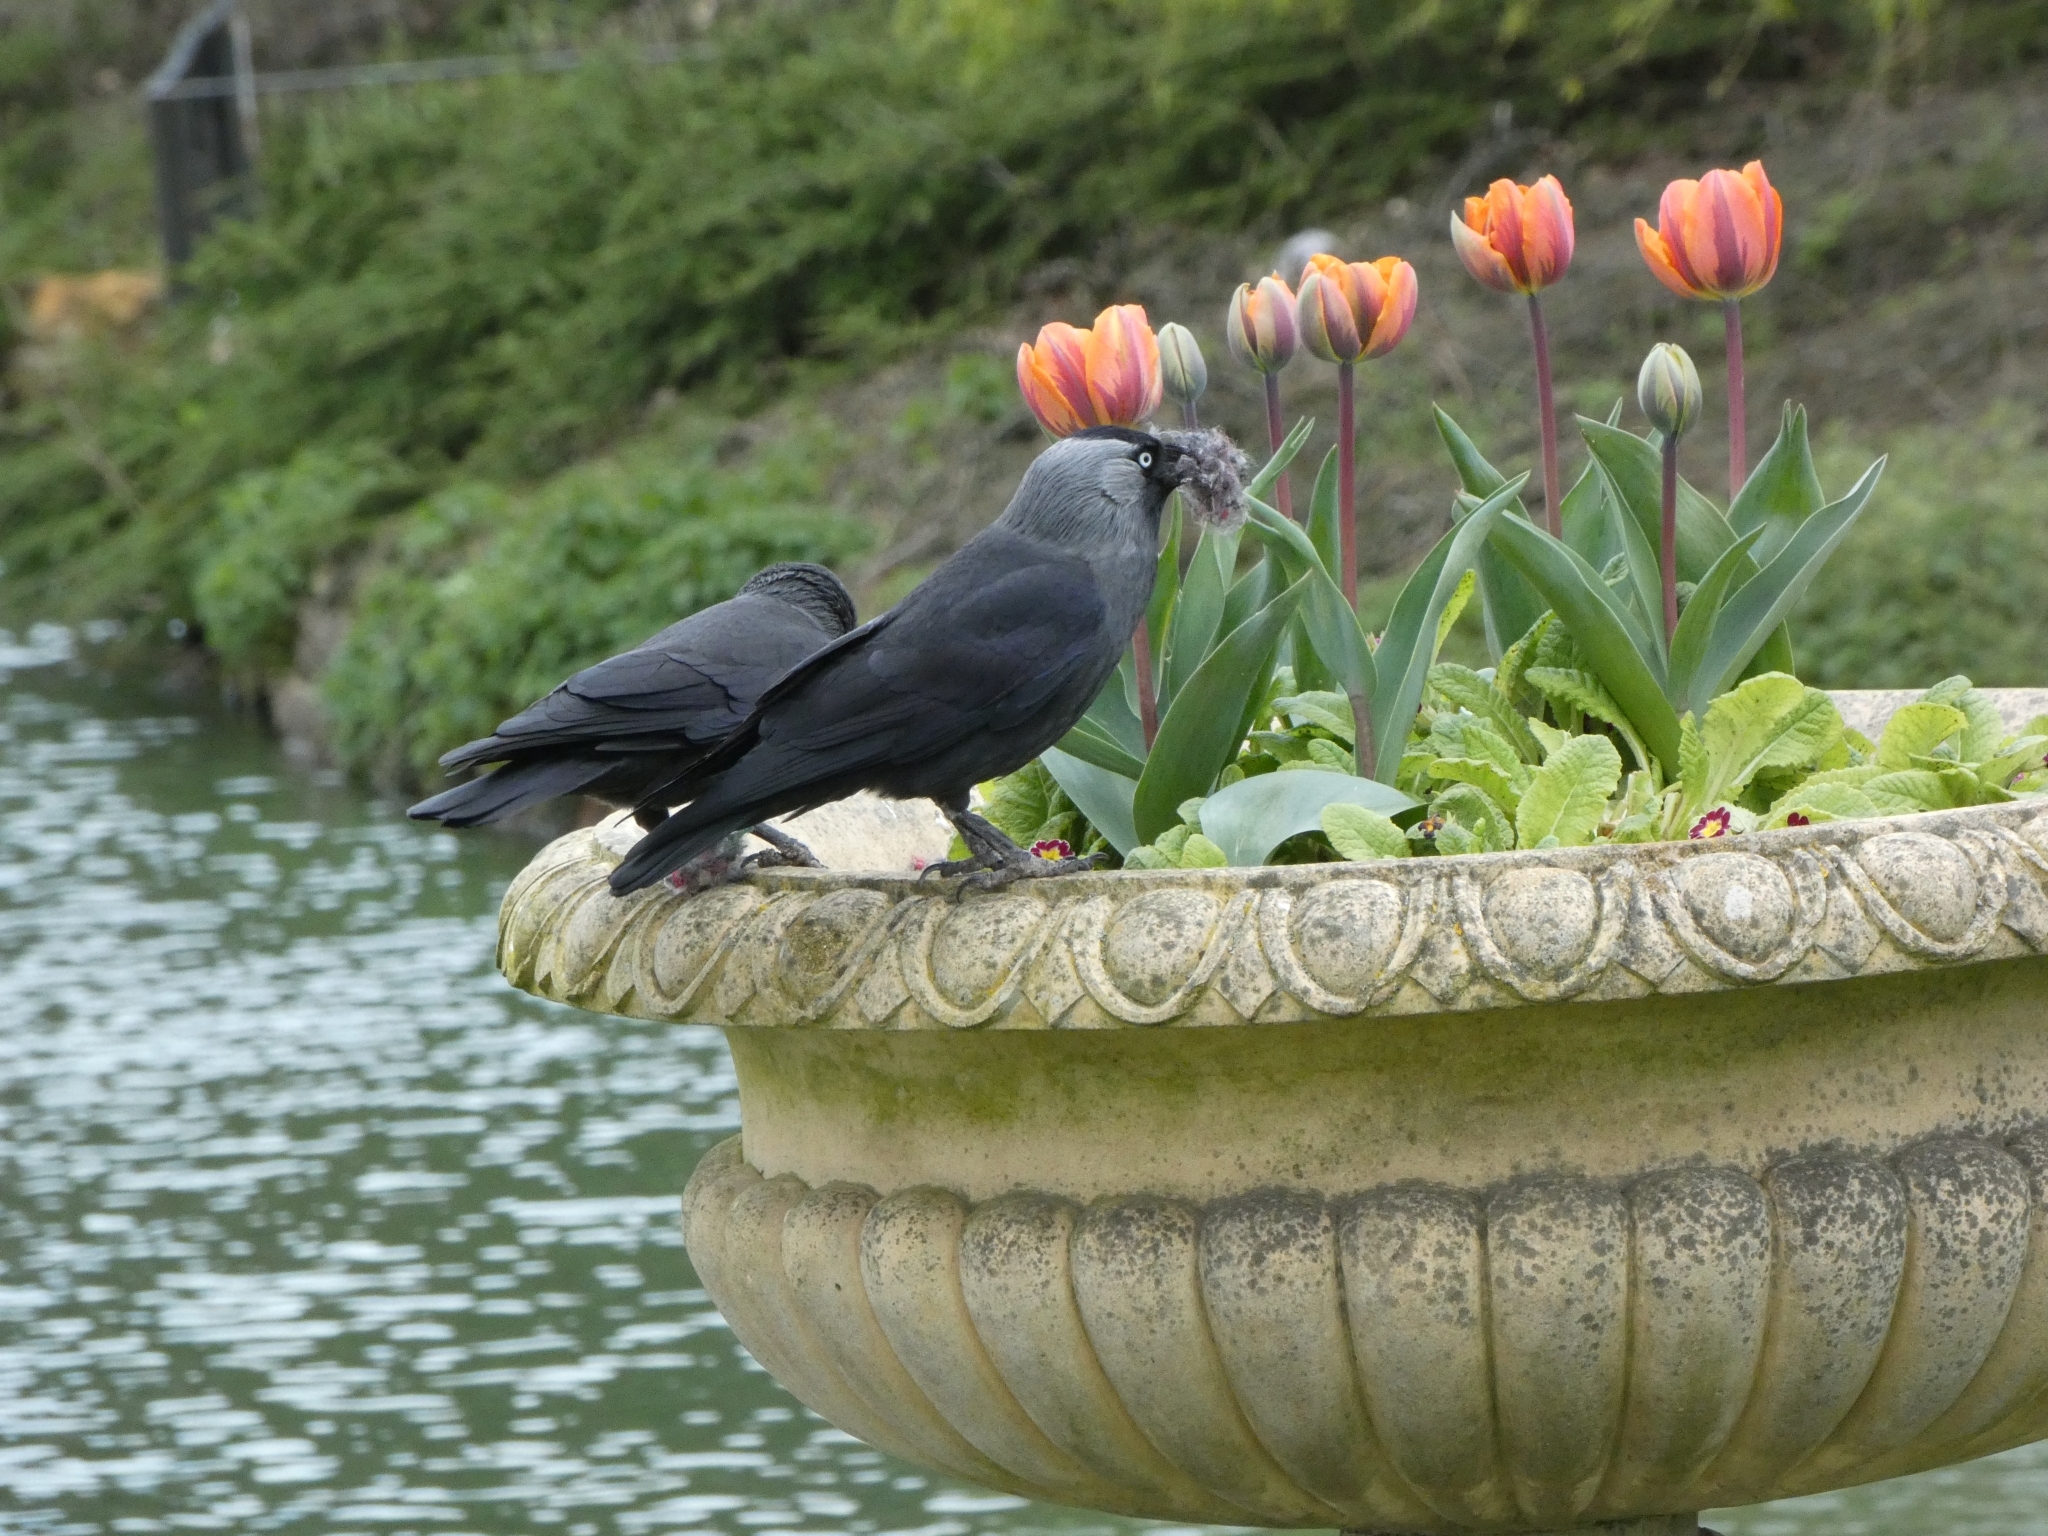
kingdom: Animalia
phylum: Chordata
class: Aves
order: Passeriformes
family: Corvidae
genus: Coloeus
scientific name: Coloeus monedula
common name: Western jackdaw
